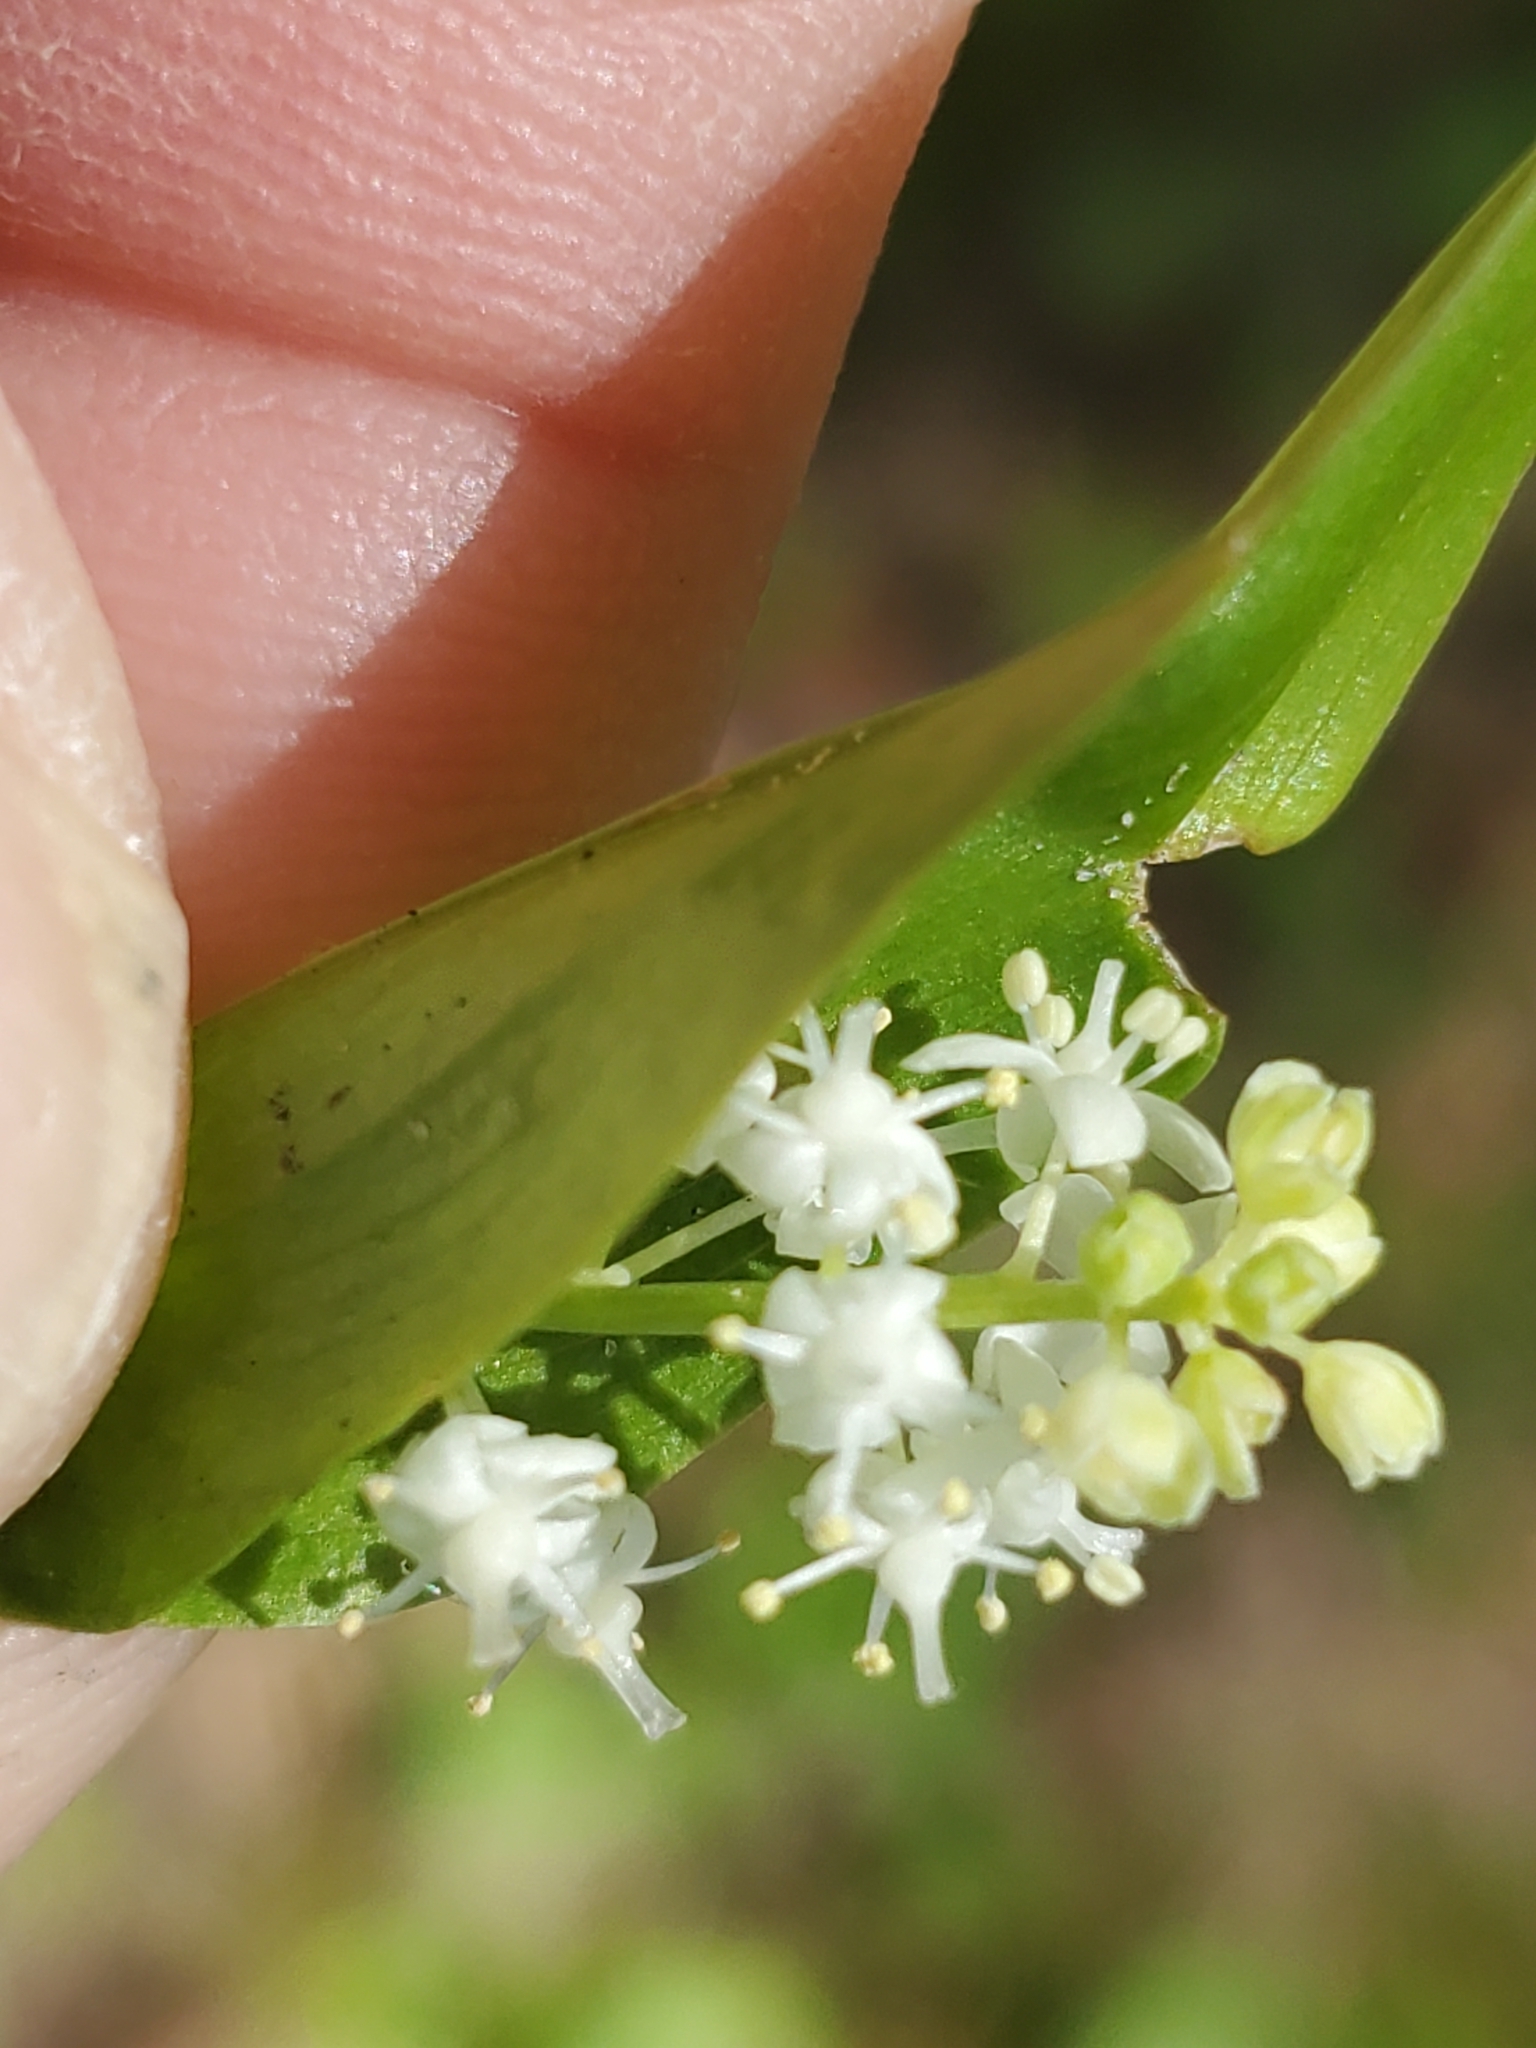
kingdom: Plantae
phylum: Tracheophyta
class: Liliopsida
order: Asparagales
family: Asparagaceae
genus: Maianthemum
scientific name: Maianthemum canadense
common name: False lily-of-the-valley
